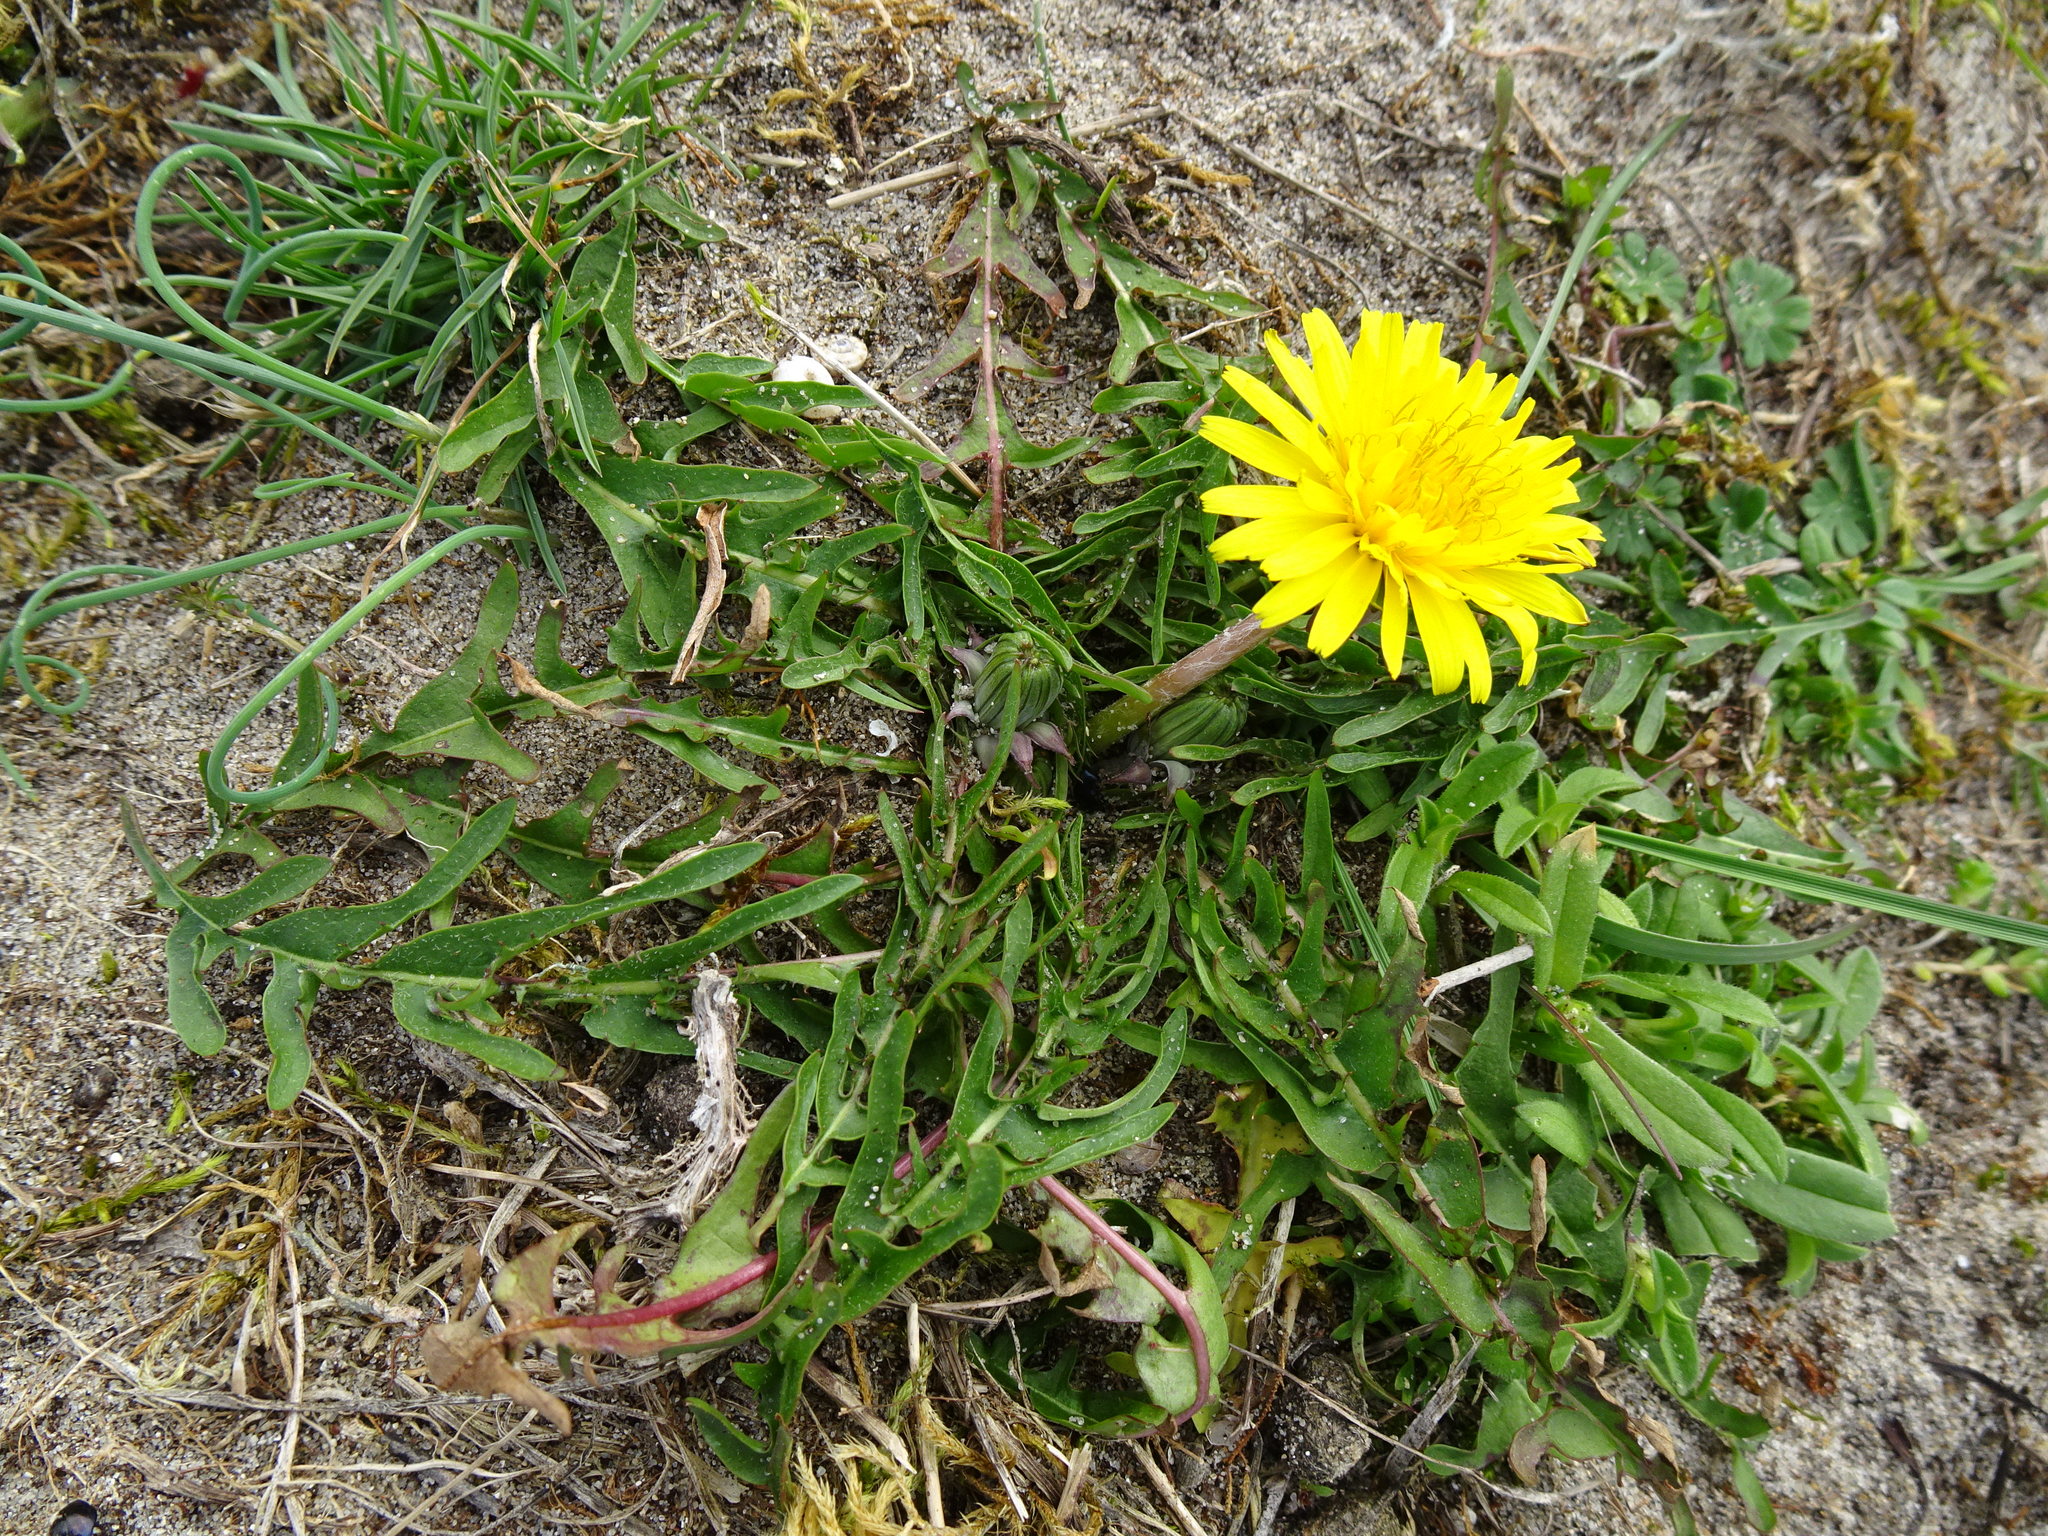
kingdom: Plantae
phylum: Tracheophyta
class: Magnoliopsida
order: Asterales
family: Asteraceae
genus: Taraxacum
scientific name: Taraxacum officinale
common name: Common dandelion
